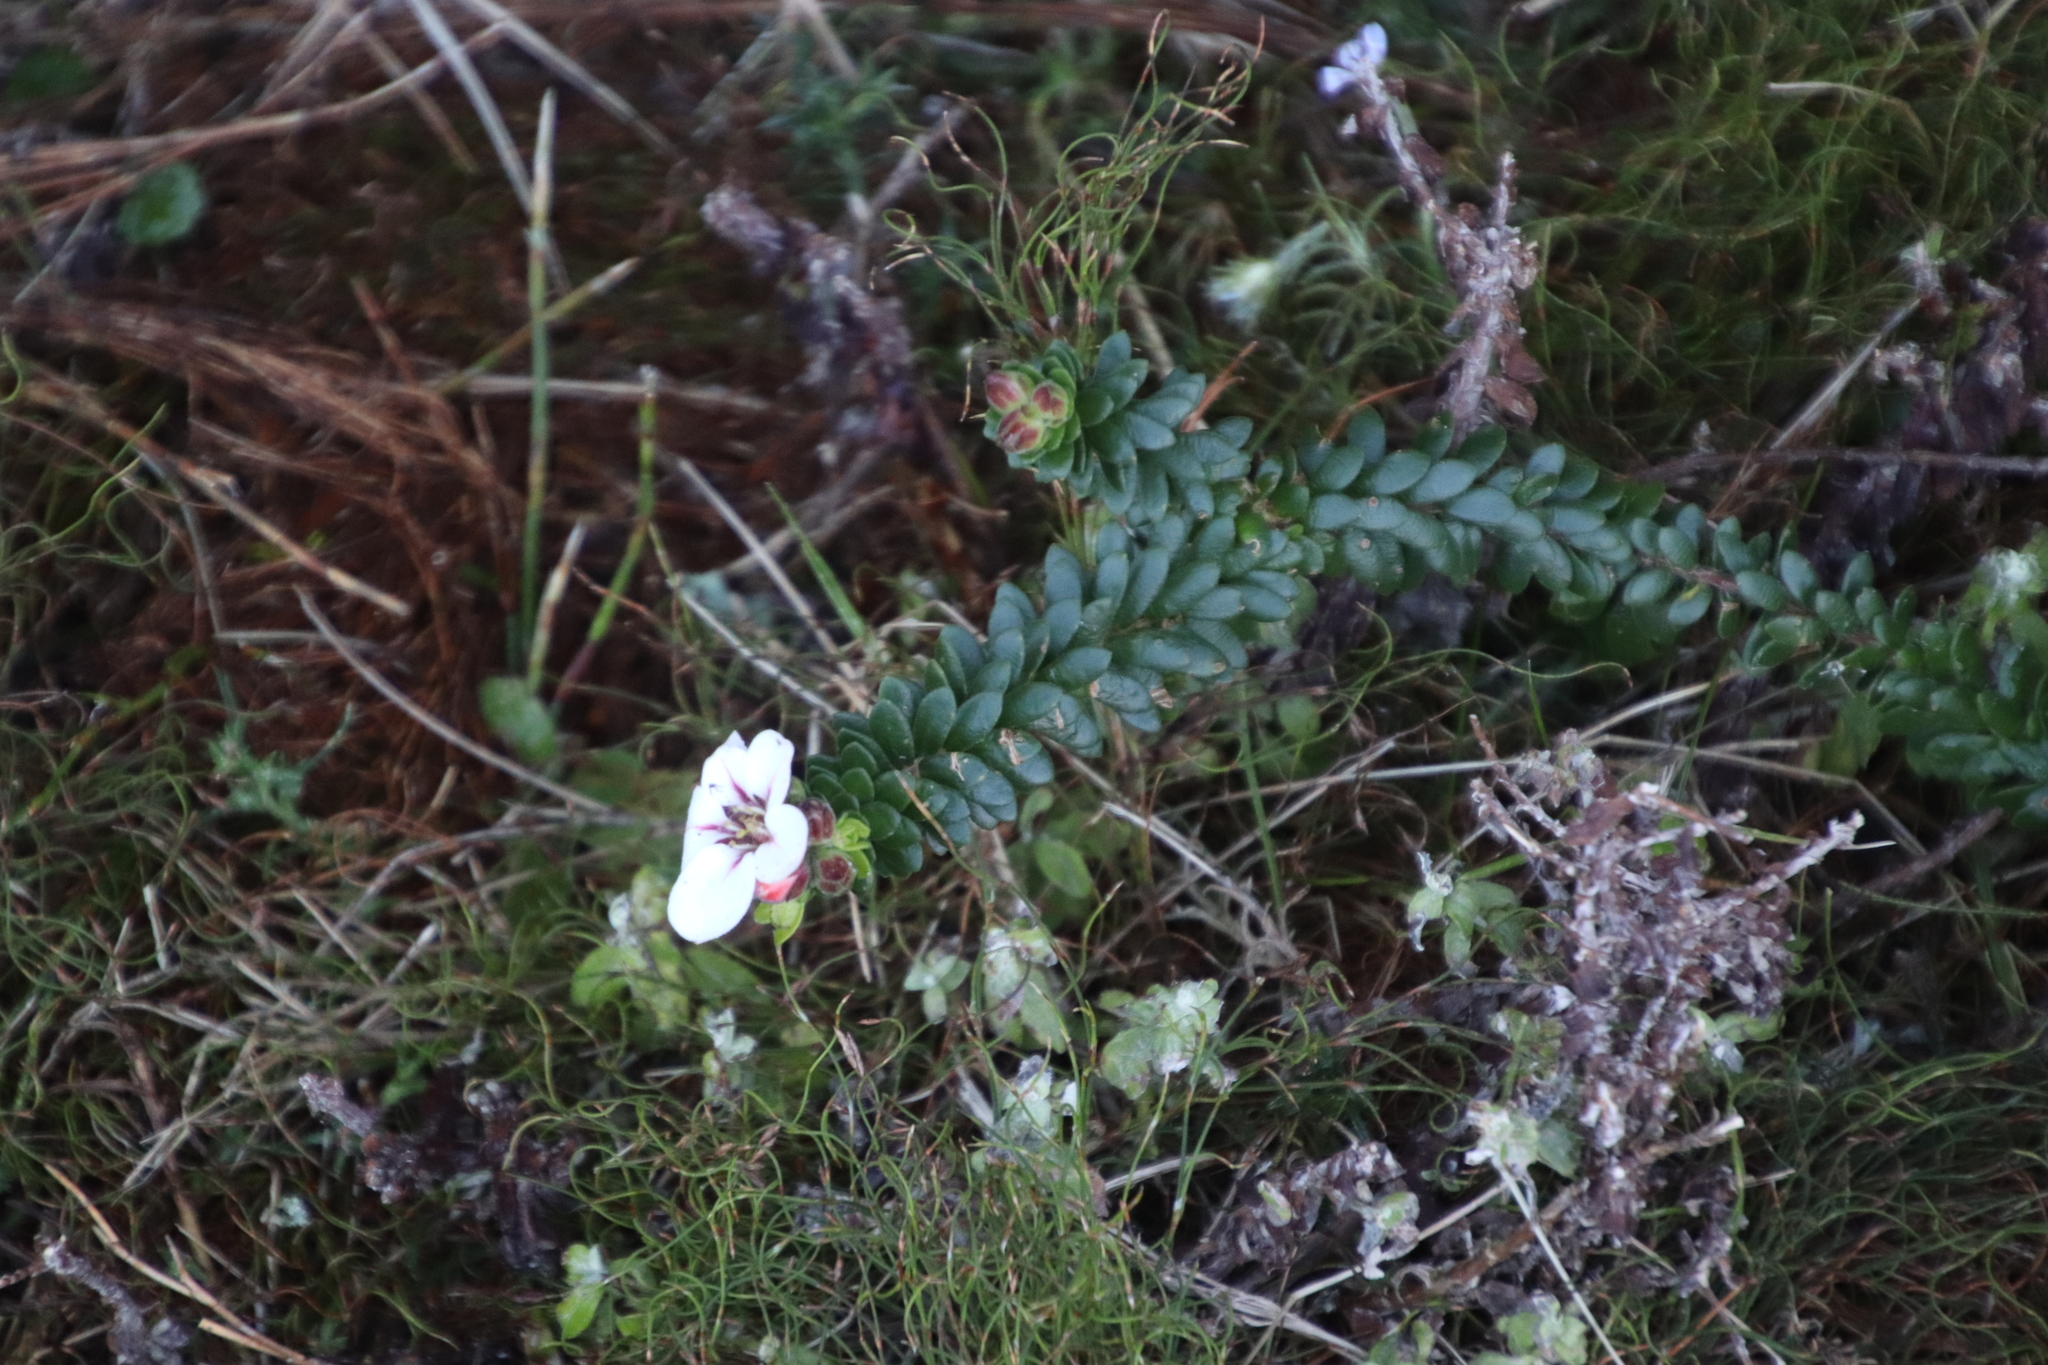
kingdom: Plantae
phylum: Tracheophyta
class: Magnoliopsida
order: Sapindales
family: Rutaceae
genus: Adenandra
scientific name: Adenandra villosa
